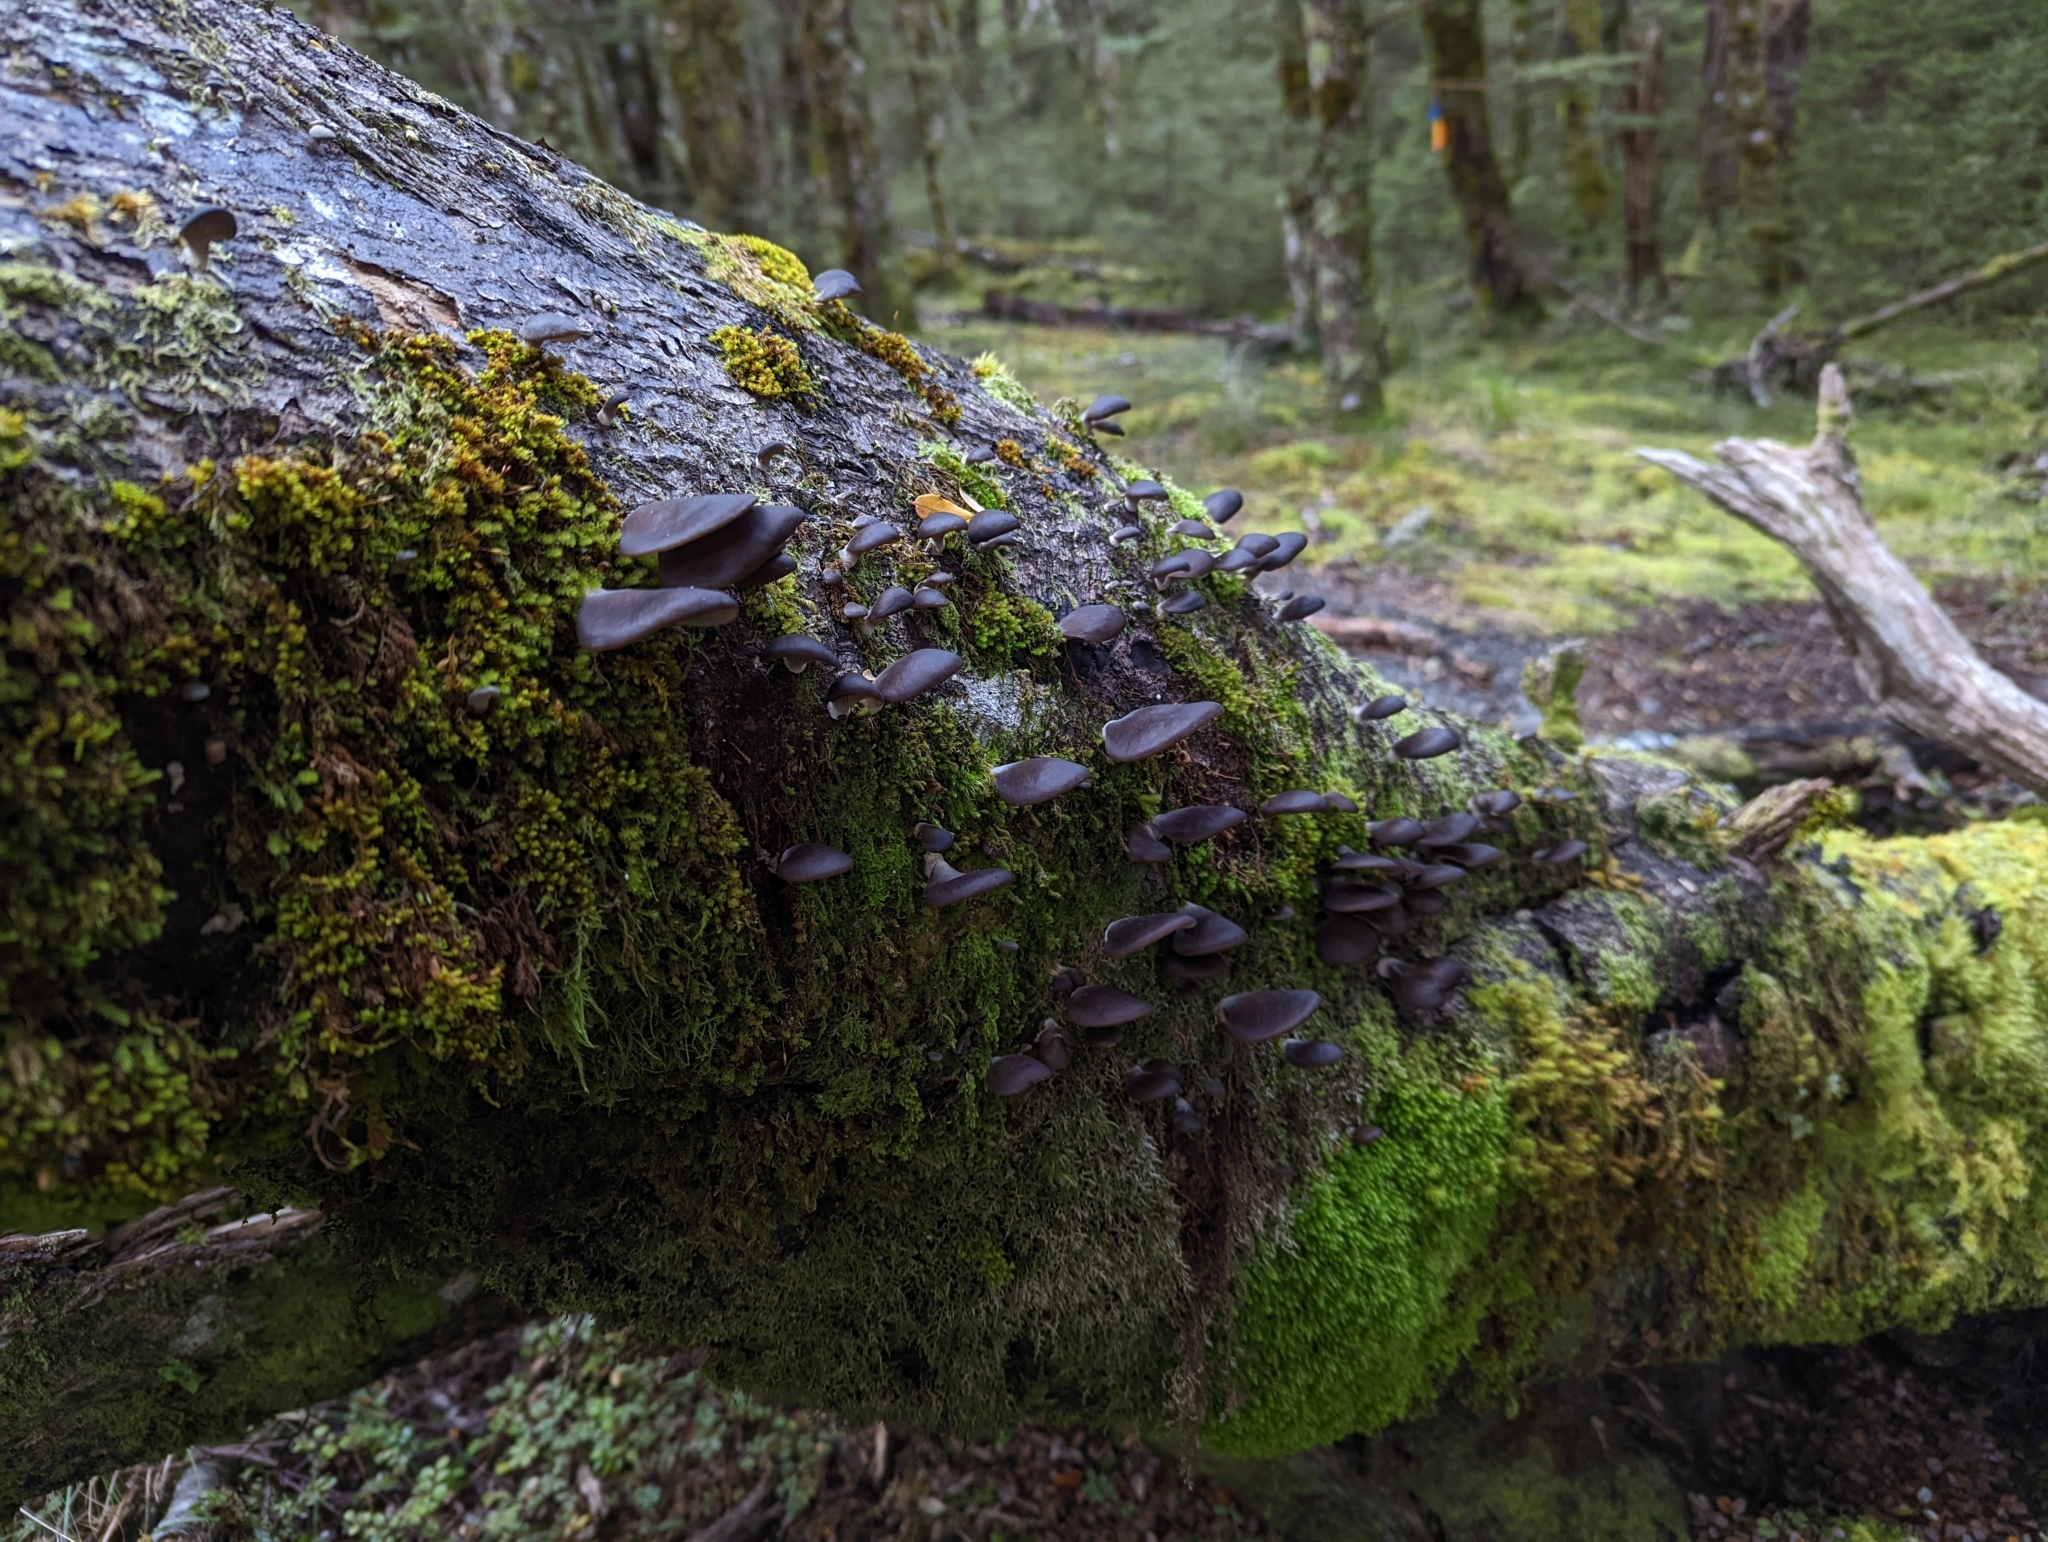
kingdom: Fungi
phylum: Basidiomycota
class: Agaricomycetes
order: Agaricales
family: Pleurotaceae
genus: Pleurotus
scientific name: Pleurotus purpureo-olivaceus
